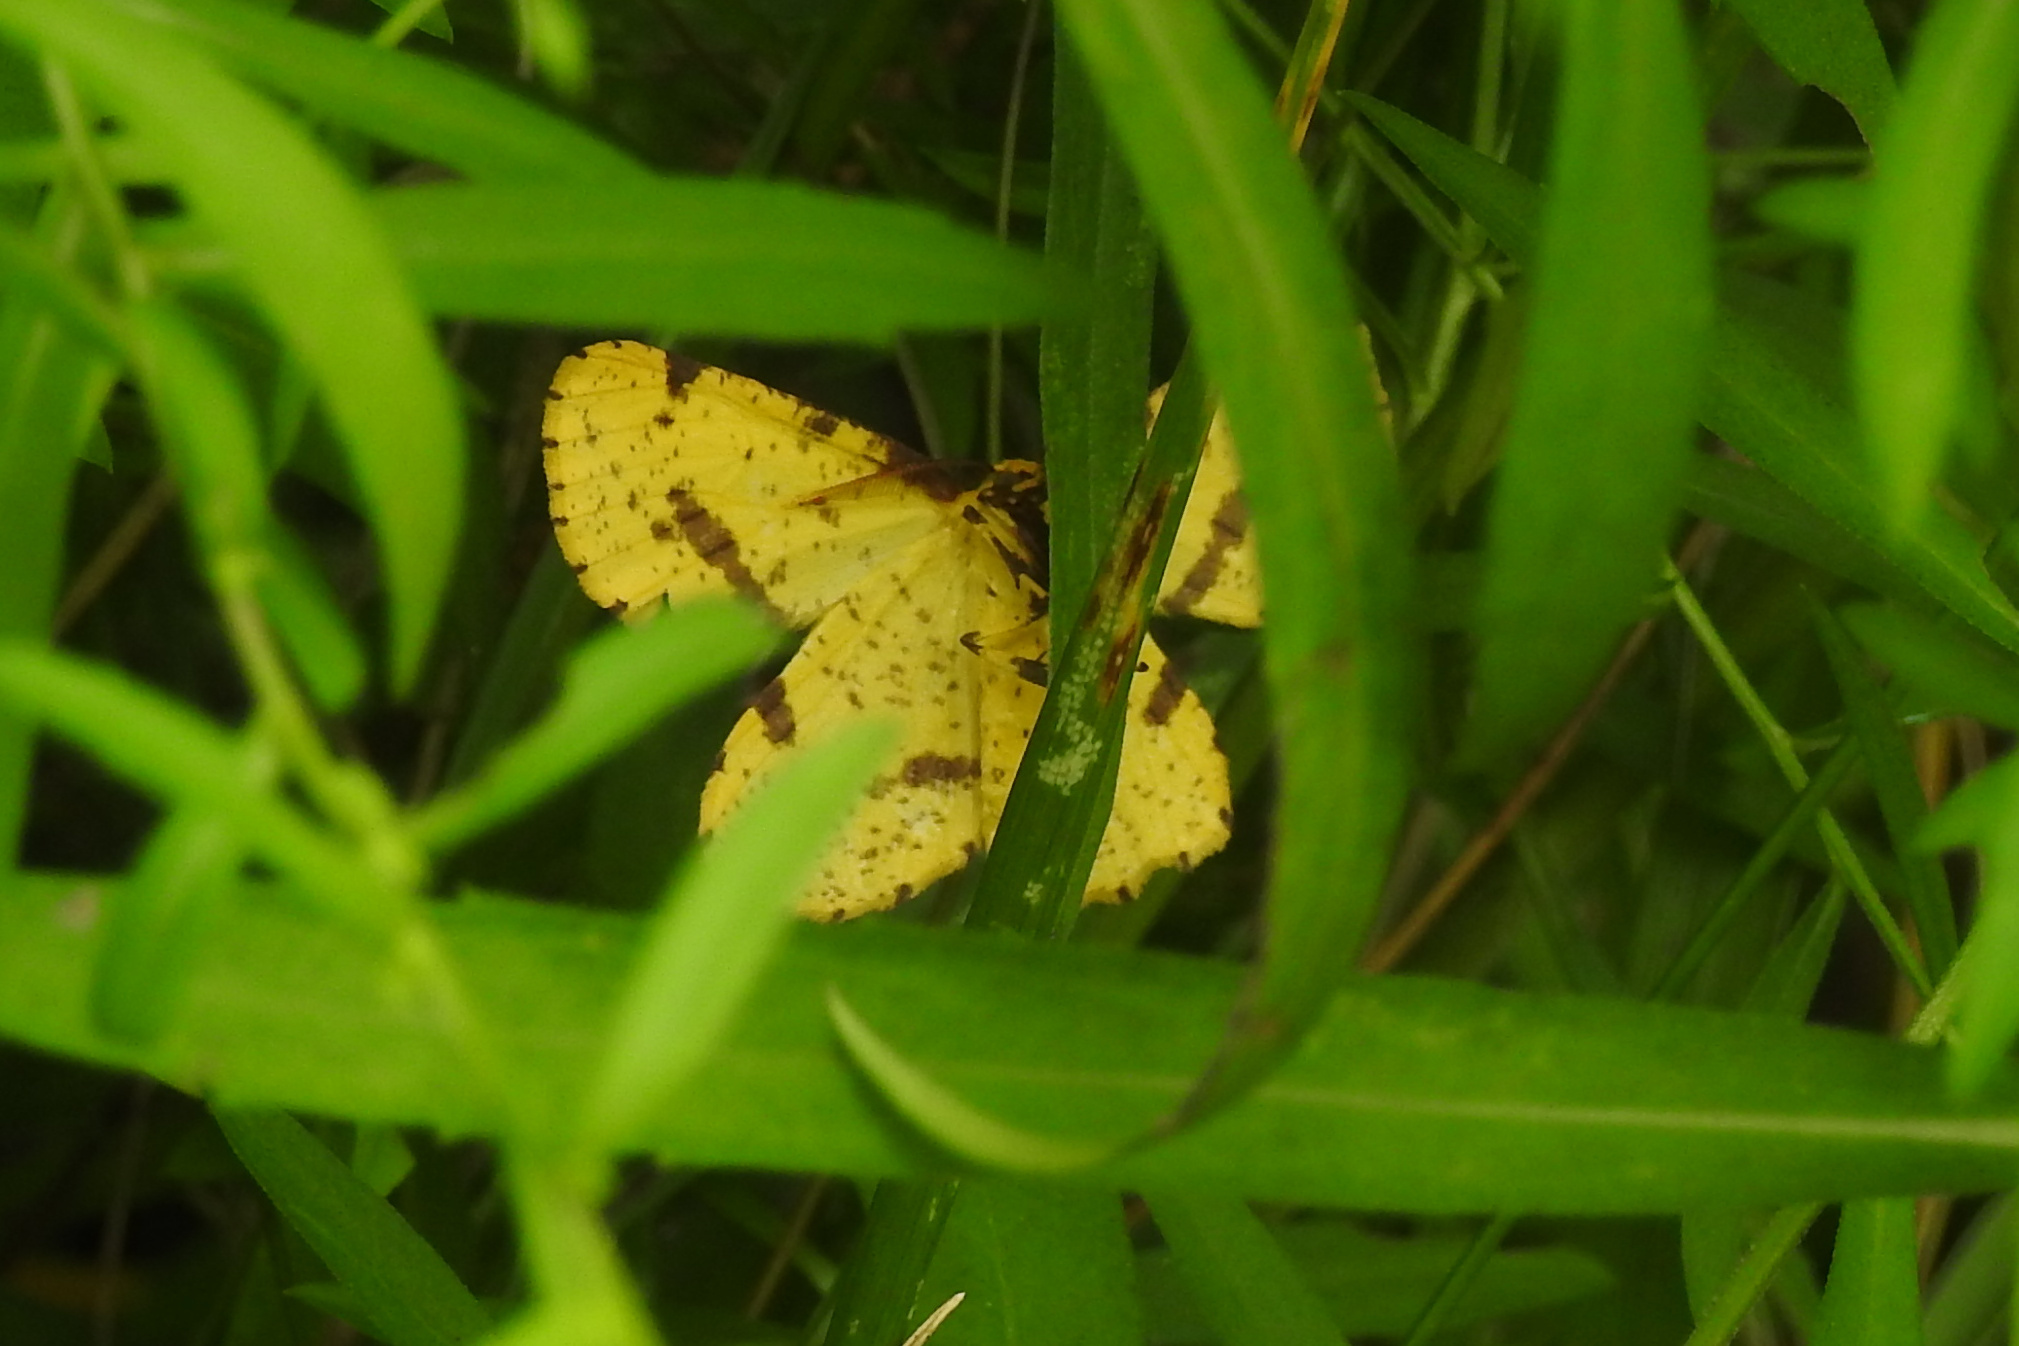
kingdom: Animalia
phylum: Arthropoda
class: Insecta
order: Lepidoptera
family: Geometridae
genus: Xanthotype
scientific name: Xanthotype
